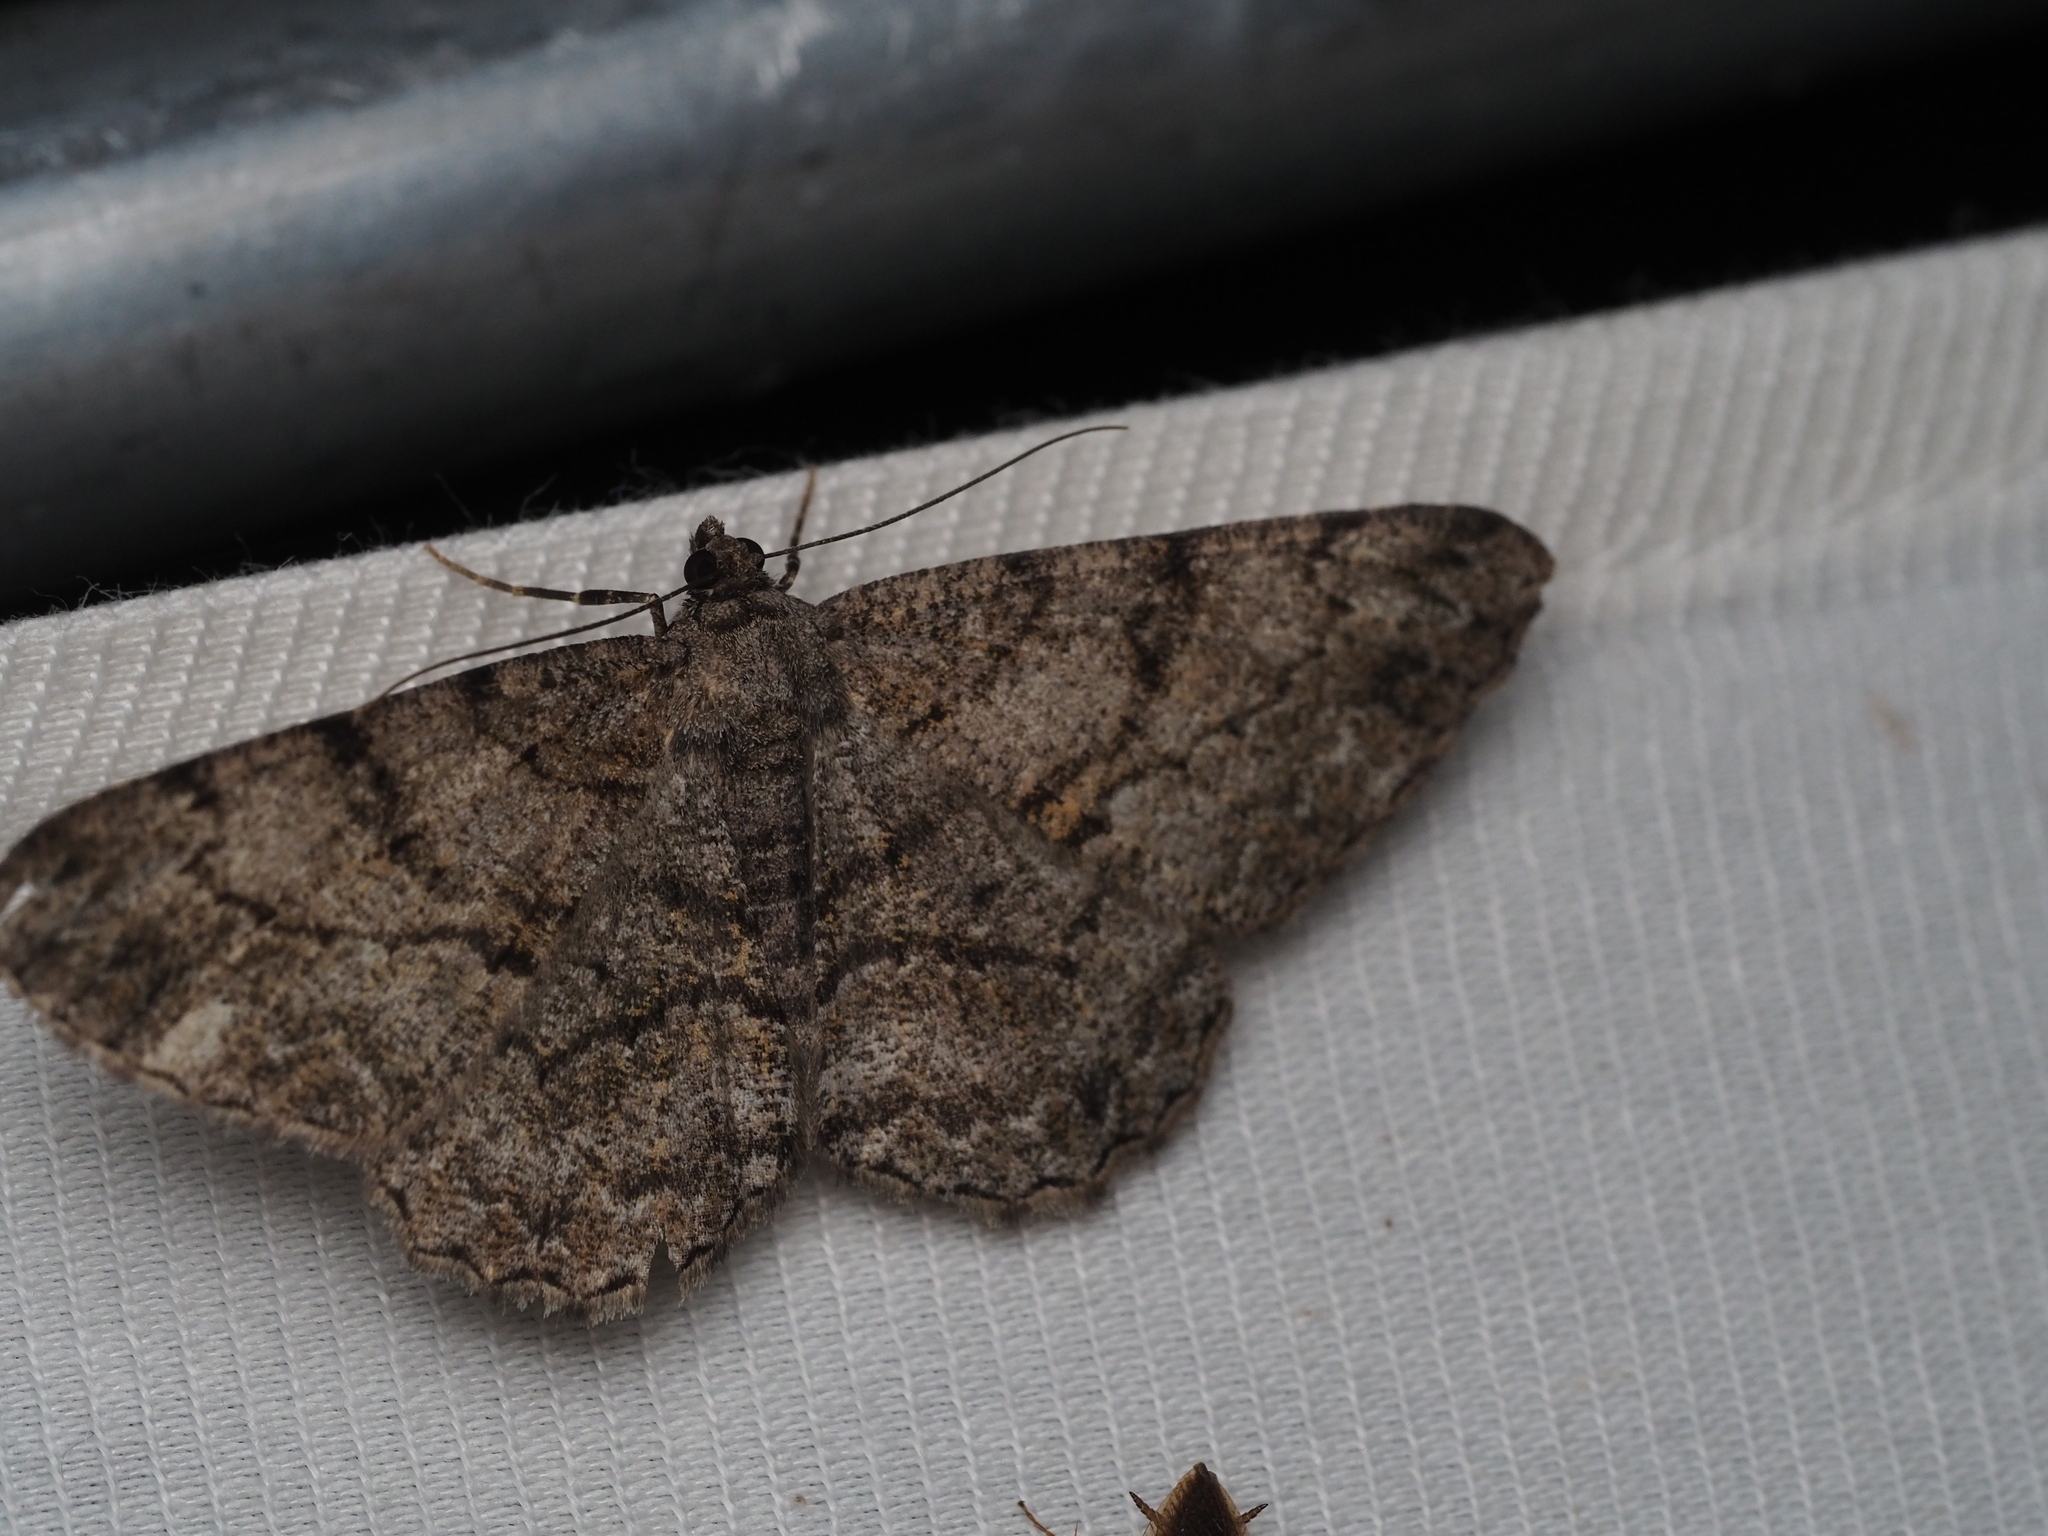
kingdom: Animalia
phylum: Arthropoda
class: Insecta
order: Lepidoptera
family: Geometridae
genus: Peribatodes
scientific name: Peribatodes rhomboidaria
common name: Willow beauty
